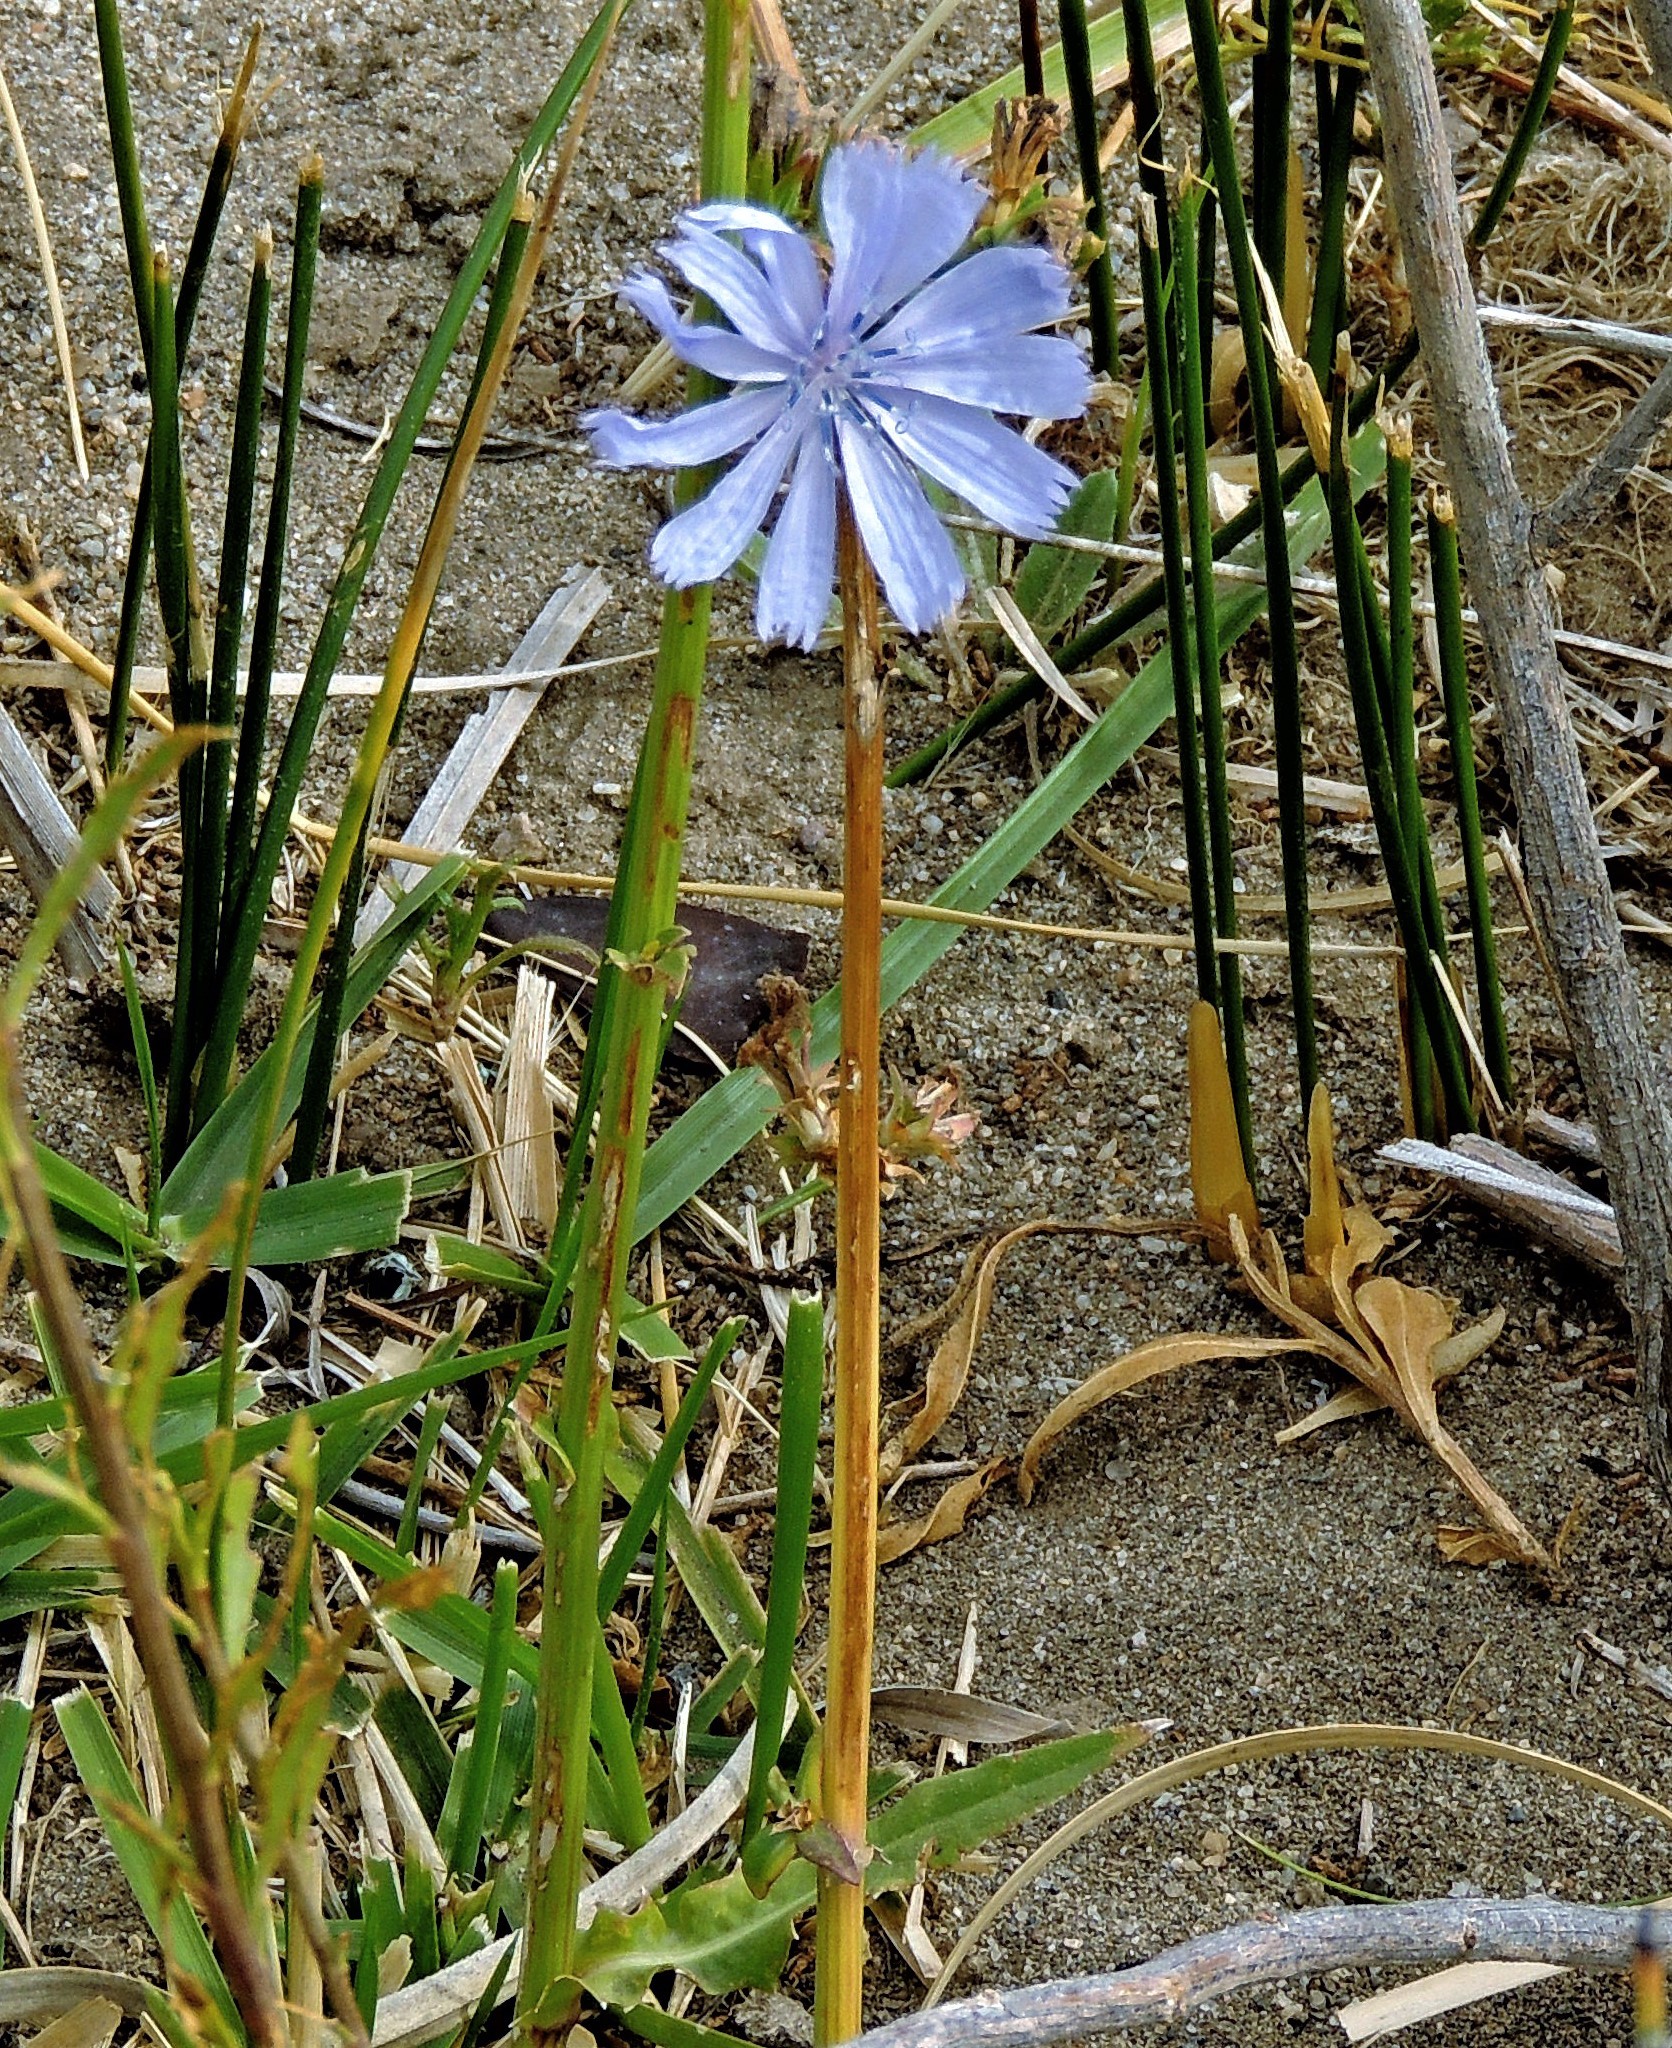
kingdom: Plantae
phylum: Tracheophyta
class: Magnoliopsida
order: Asterales
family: Asteraceae
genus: Cichorium
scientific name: Cichorium intybus
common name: Chicory
